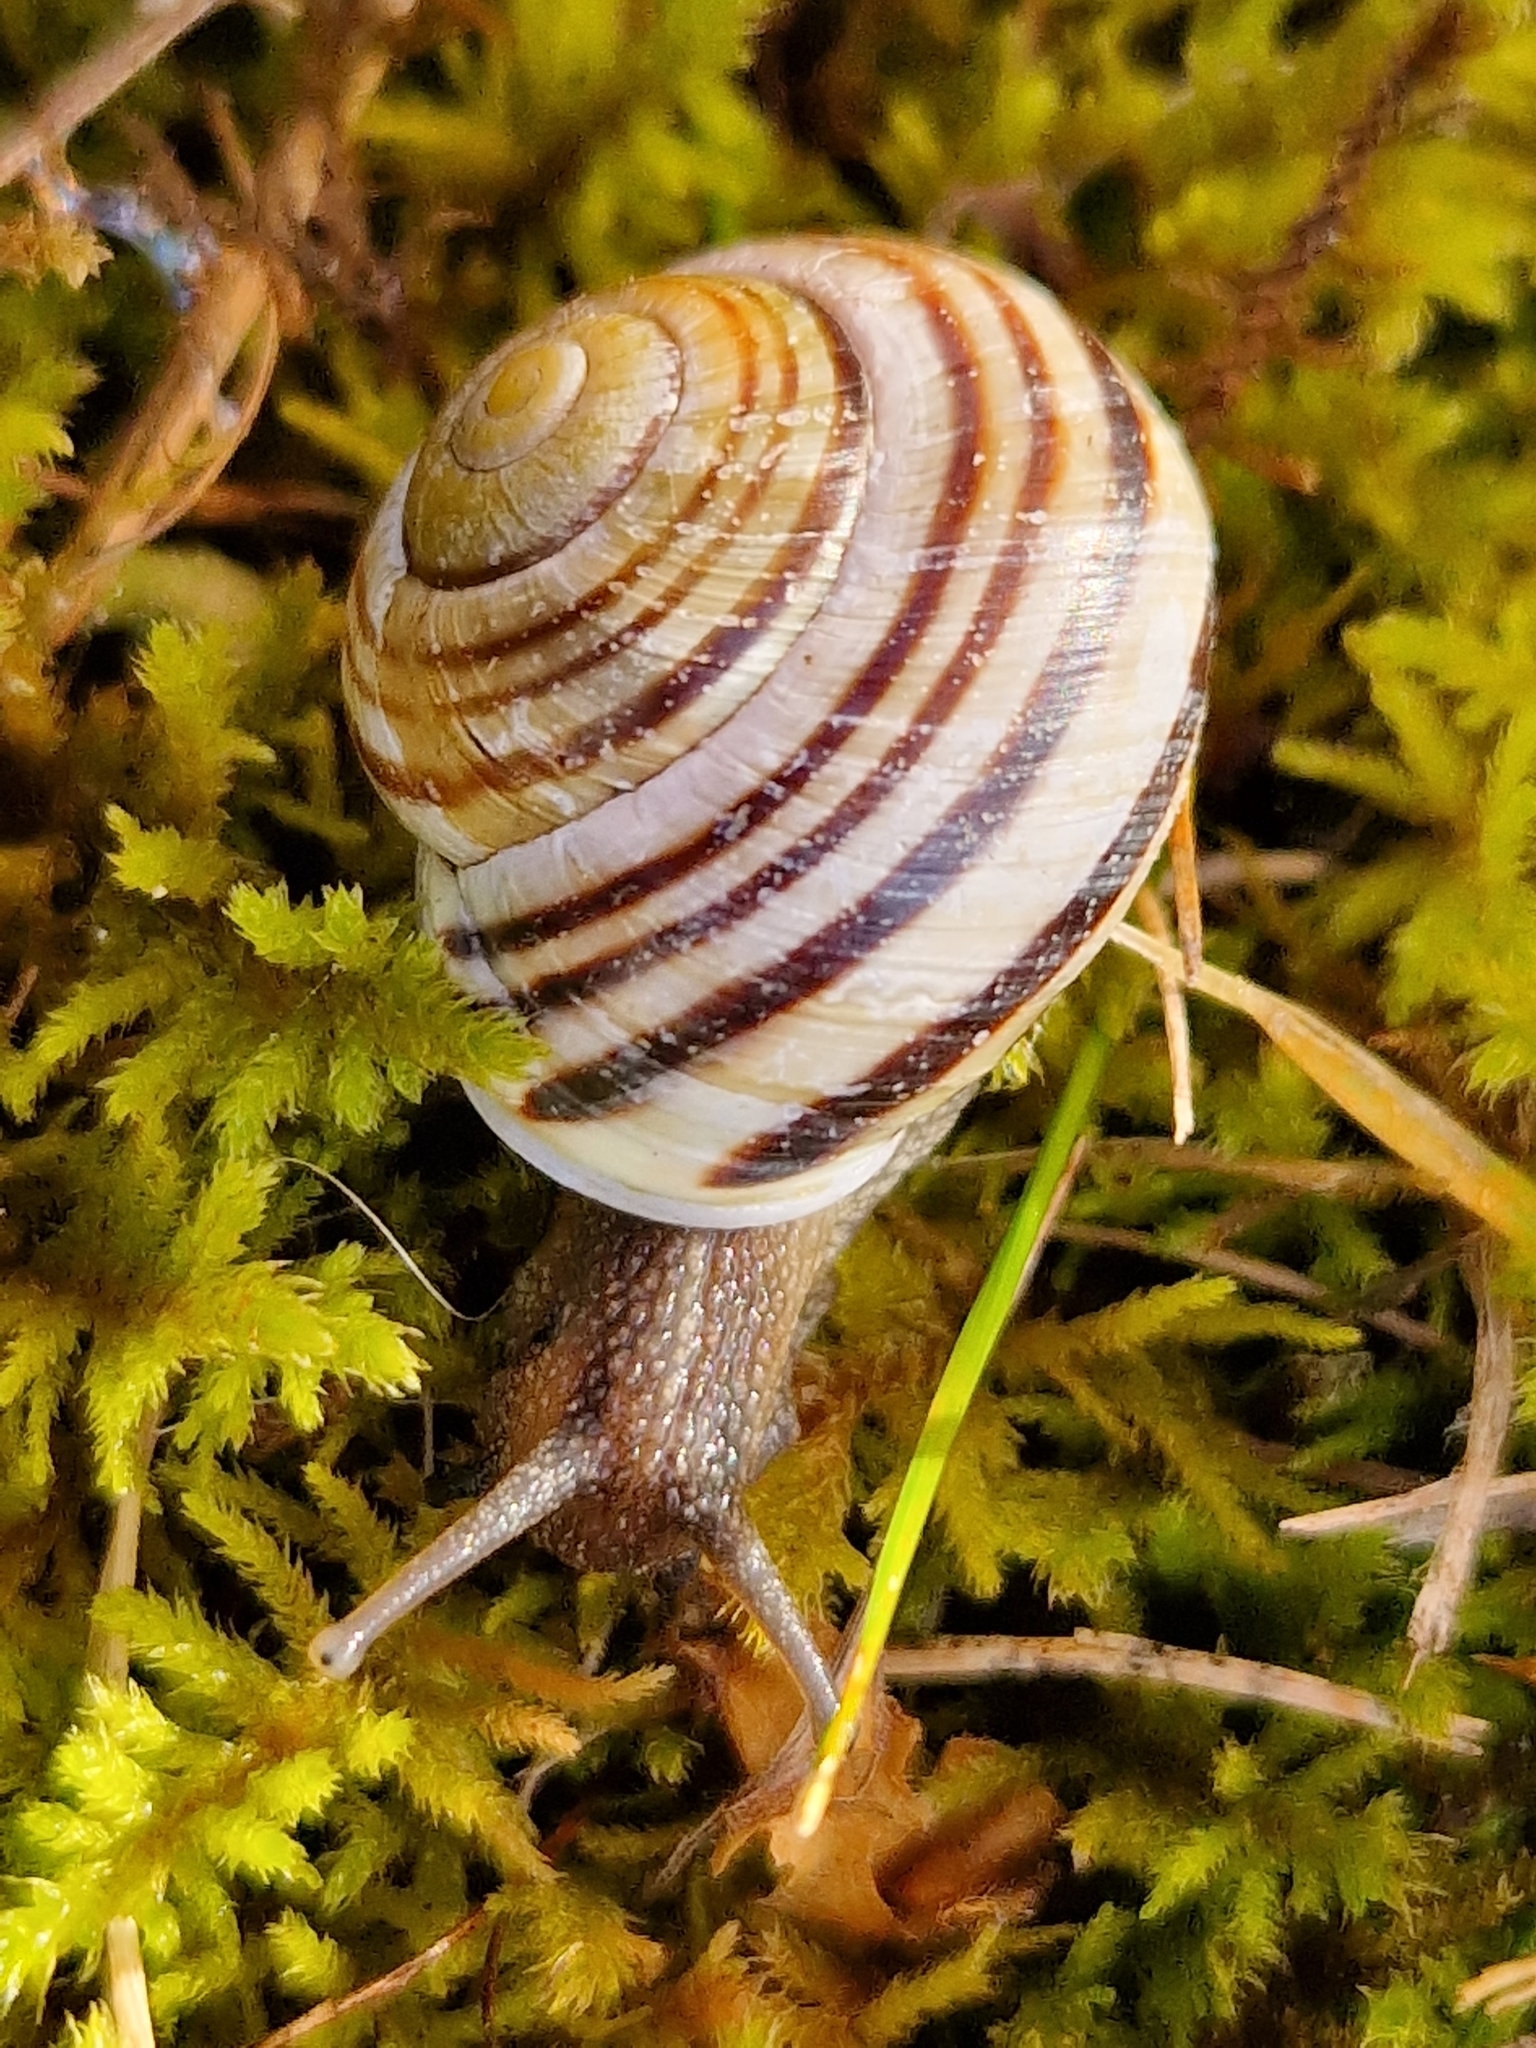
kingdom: Animalia
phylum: Mollusca
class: Gastropoda
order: Stylommatophora
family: Helicidae
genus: Cepaea
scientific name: Cepaea hortensis
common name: White-lip gardensnail
